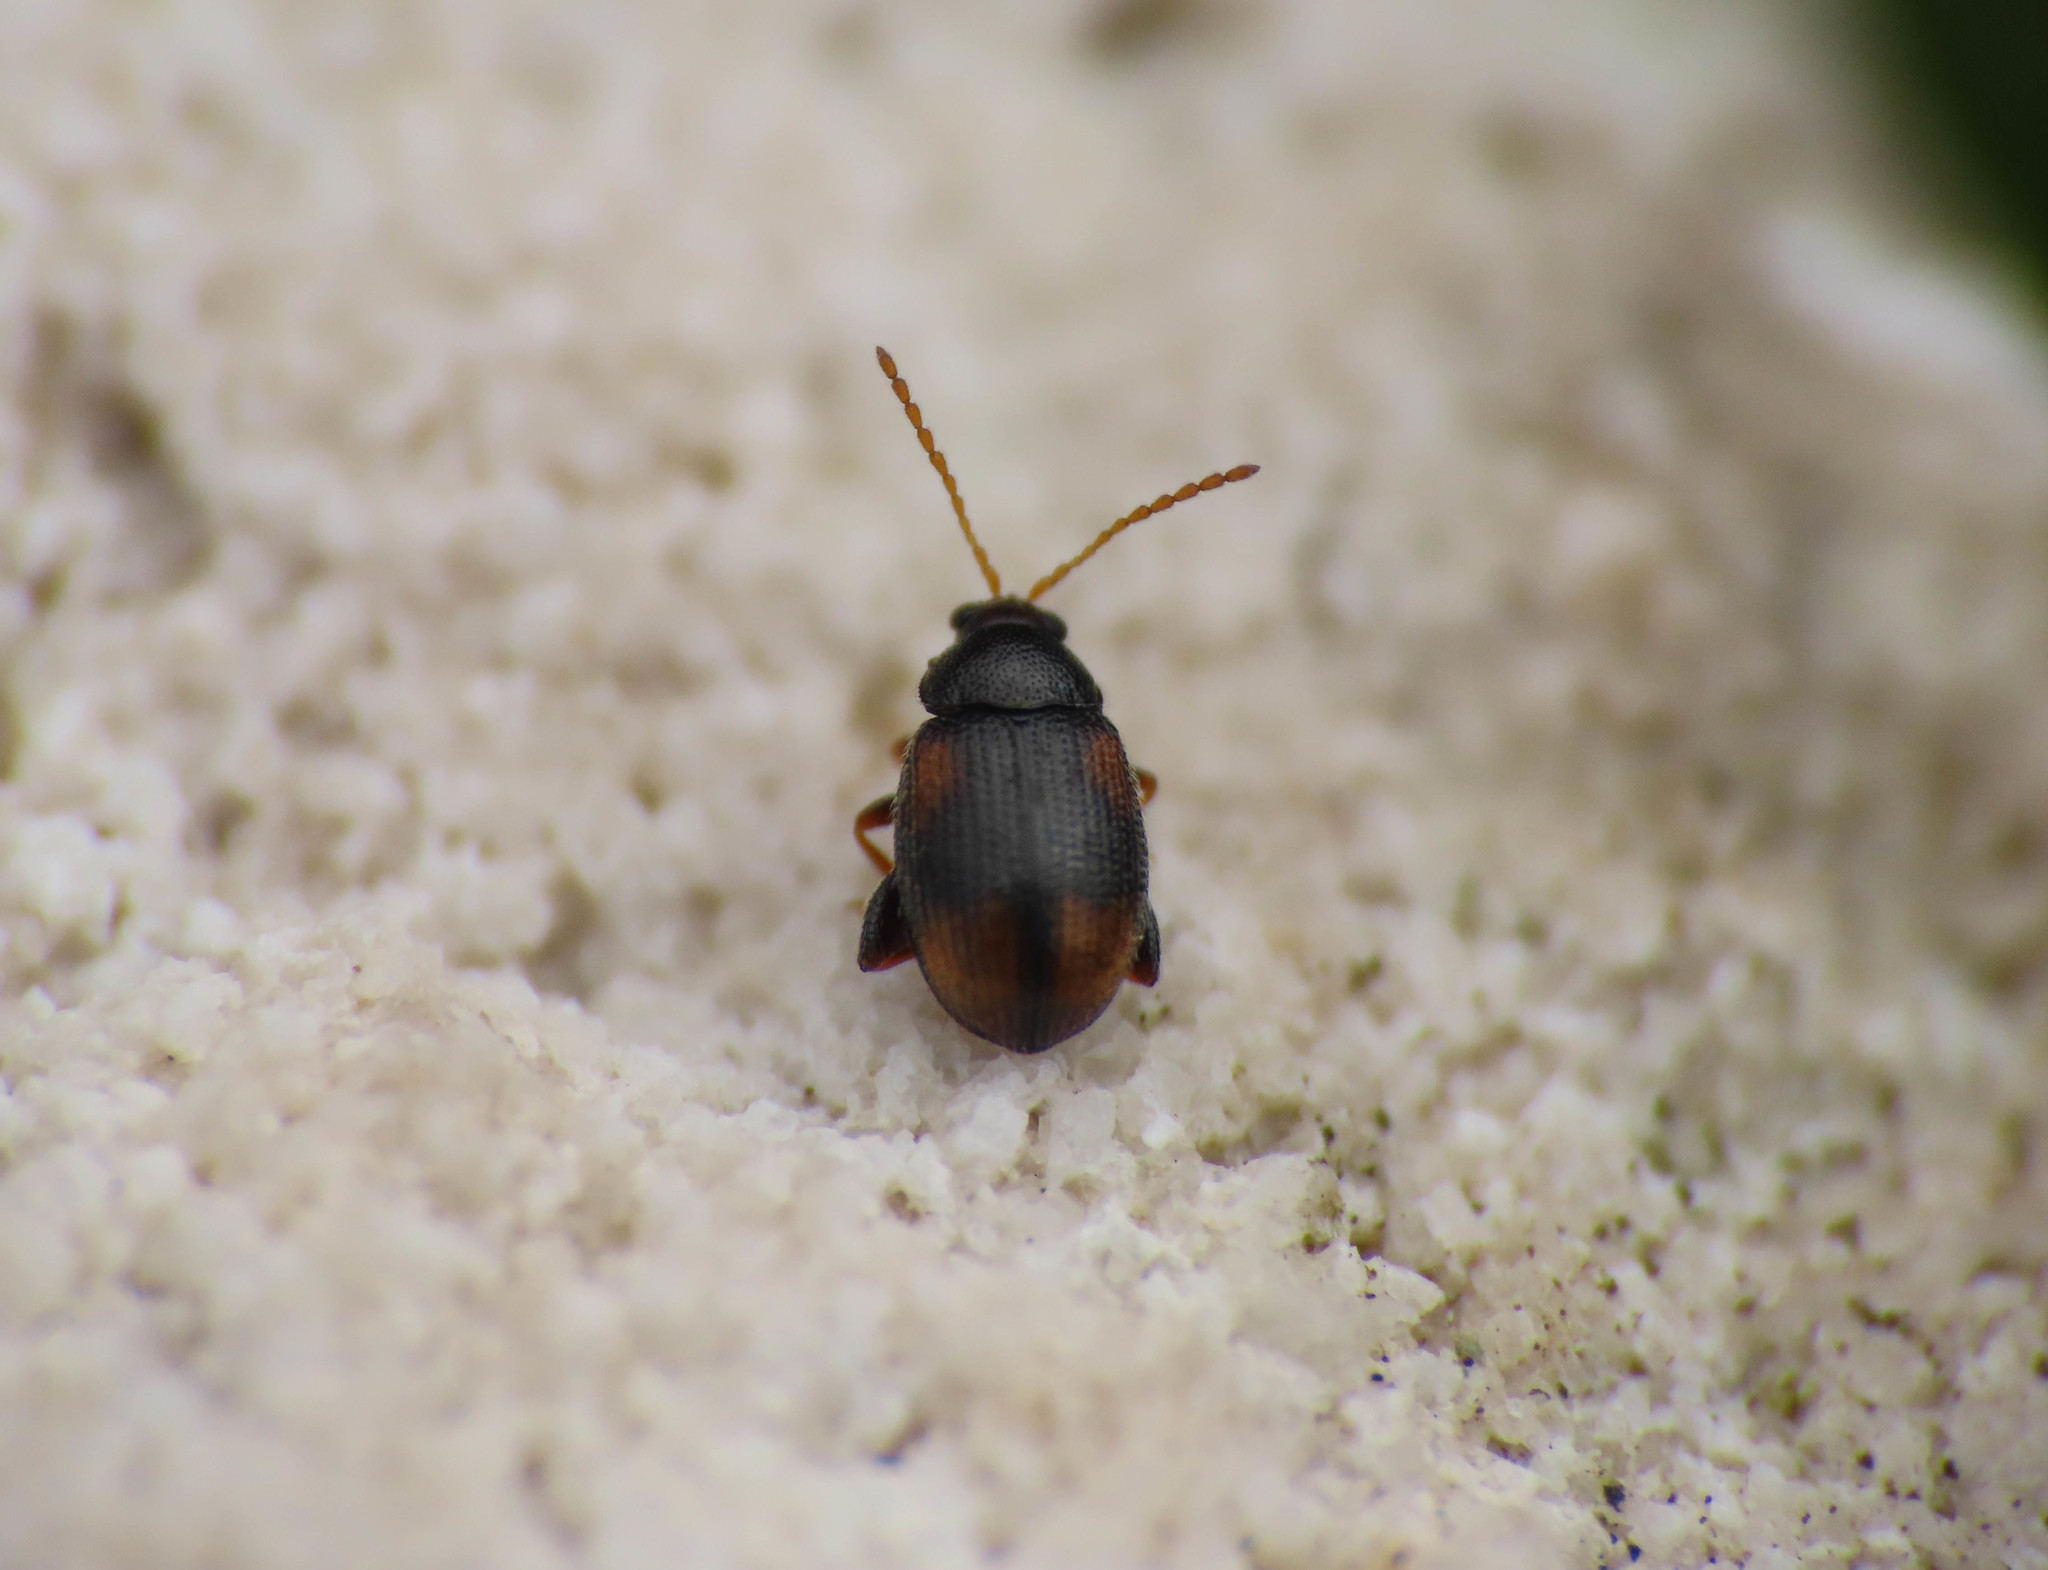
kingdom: Animalia
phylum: Arthropoda
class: Insecta
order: Coleoptera
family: Chrysomelidae
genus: Epitrix
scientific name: Epitrix atropae
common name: Belladonna flea beetle
